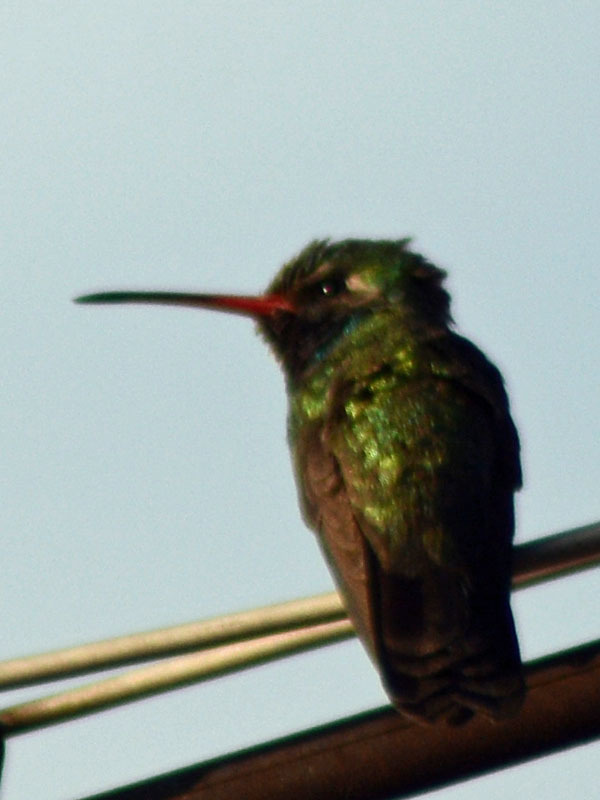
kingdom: Animalia
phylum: Chordata
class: Aves
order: Apodiformes
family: Trochilidae
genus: Cynanthus
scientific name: Cynanthus latirostris
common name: Broad-billed hummingbird
